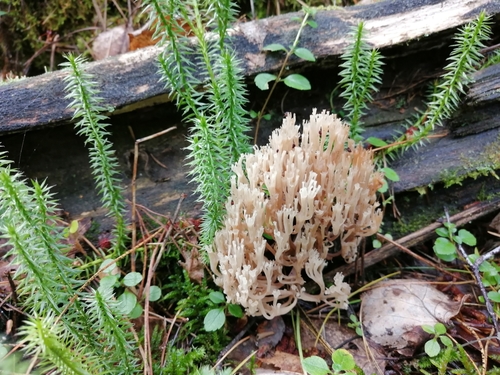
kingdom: Fungi
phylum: Basidiomycota
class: Agaricomycetes
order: Russulales
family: Auriscalpiaceae
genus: Artomyces
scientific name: Artomyces pyxidatus
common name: Crown-tipped coral fungus
